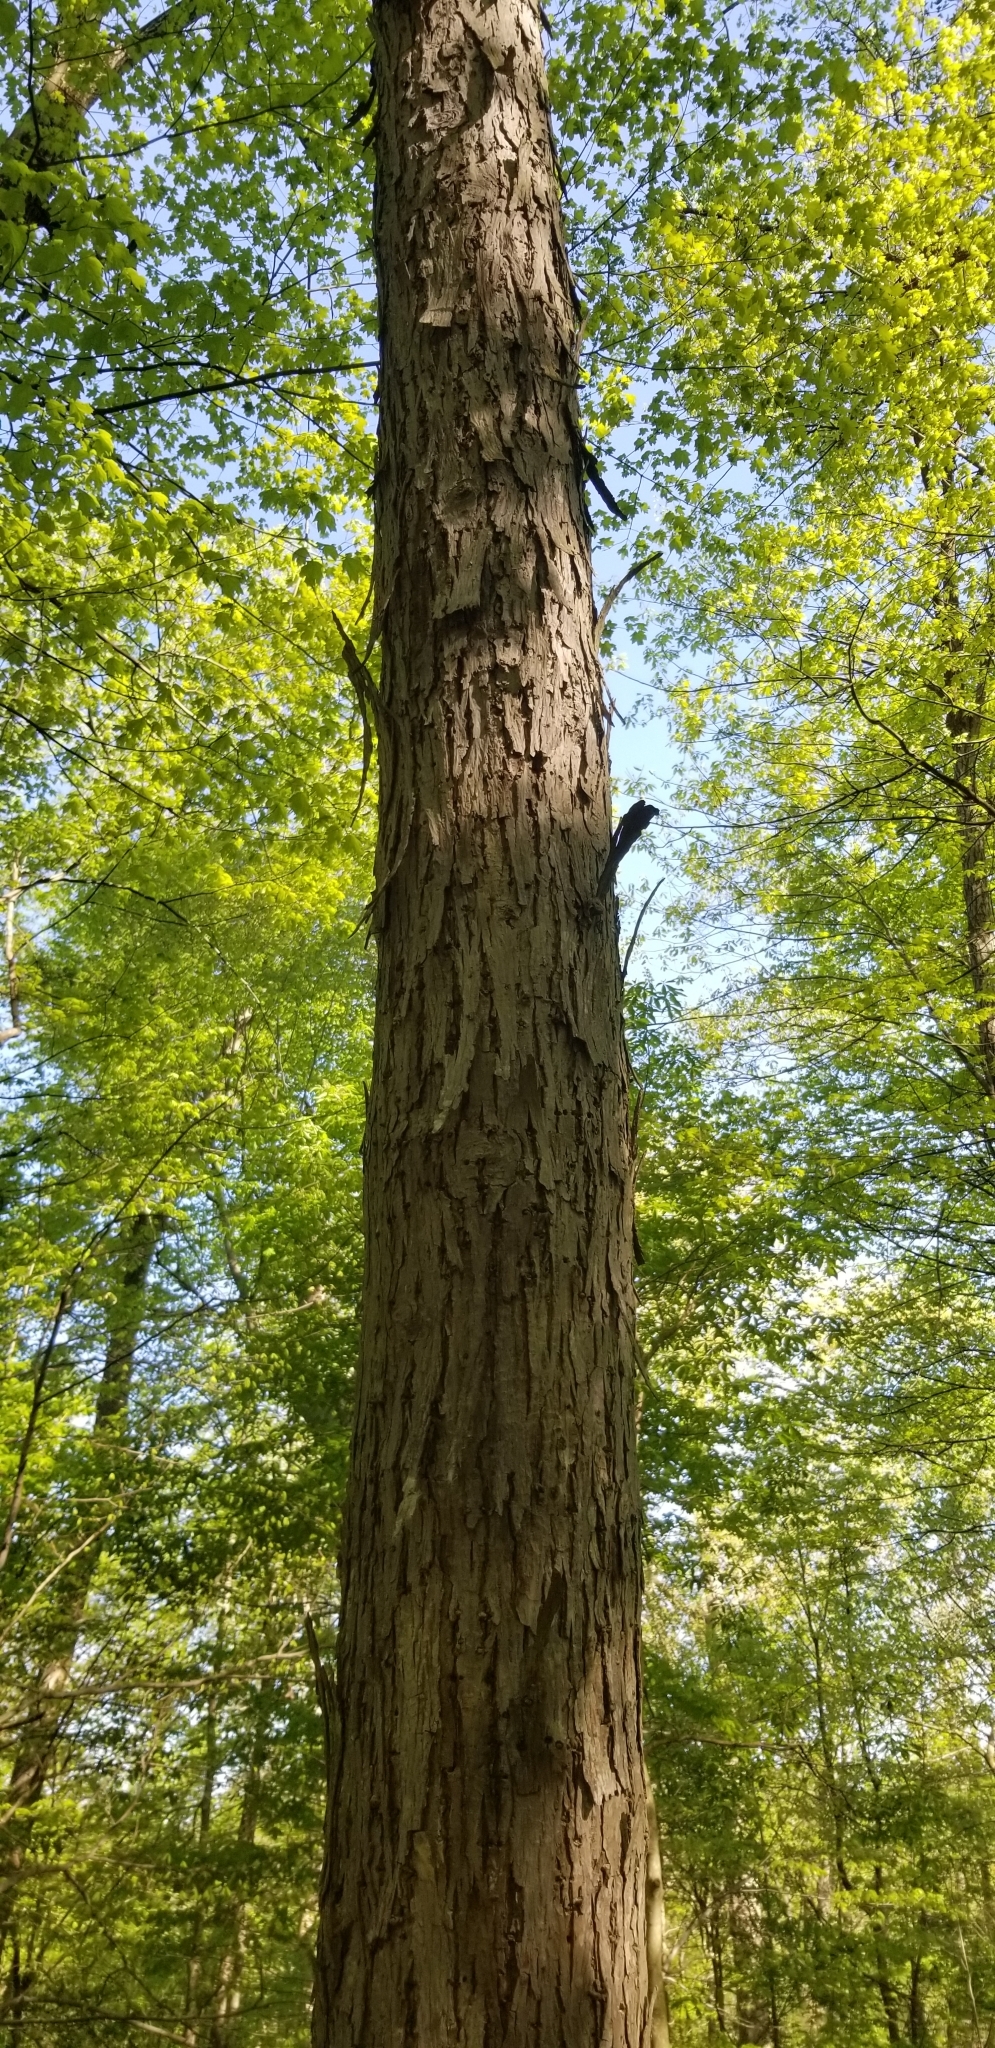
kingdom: Plantae
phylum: Tracheophyta
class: Magnoliopsida
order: Fagales
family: Juglandaceae
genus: Carya
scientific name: Carya ovata
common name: Shagbark hickory
